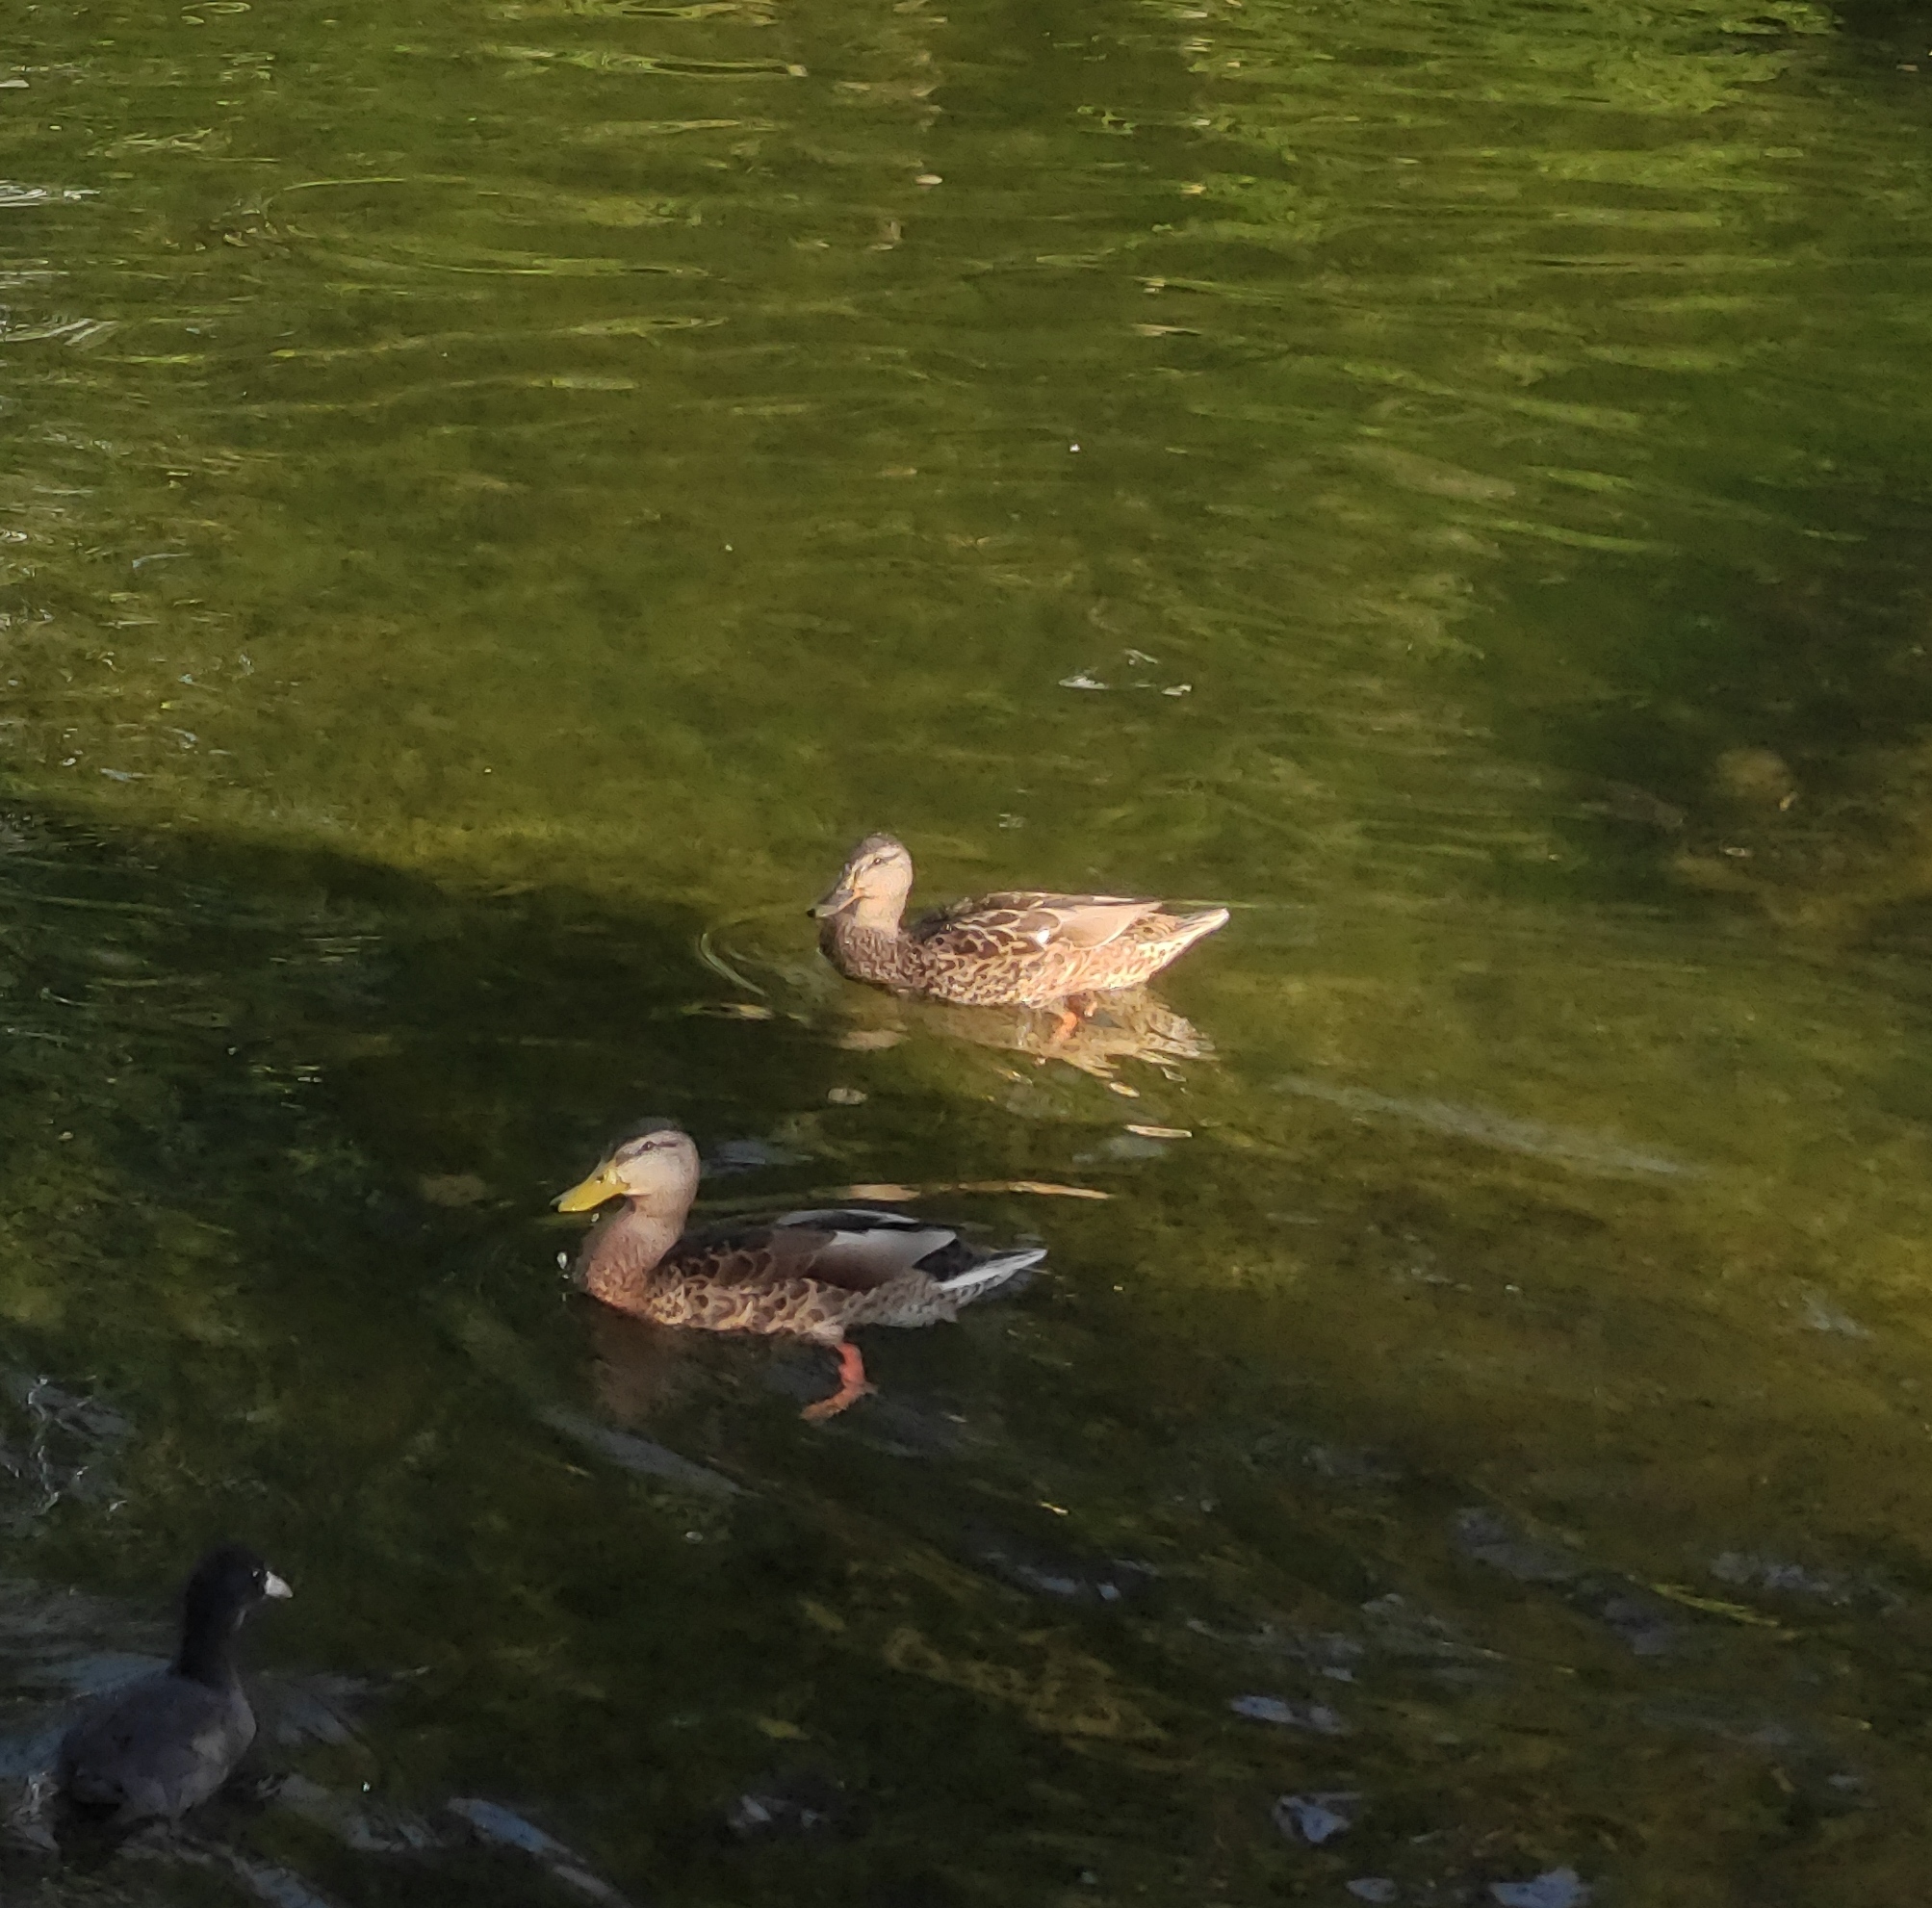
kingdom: Animalia
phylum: Chordata
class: Aves
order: Anseriformes
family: Anatidae
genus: Anas
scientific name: Anas platyrhynchos
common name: Mallard
